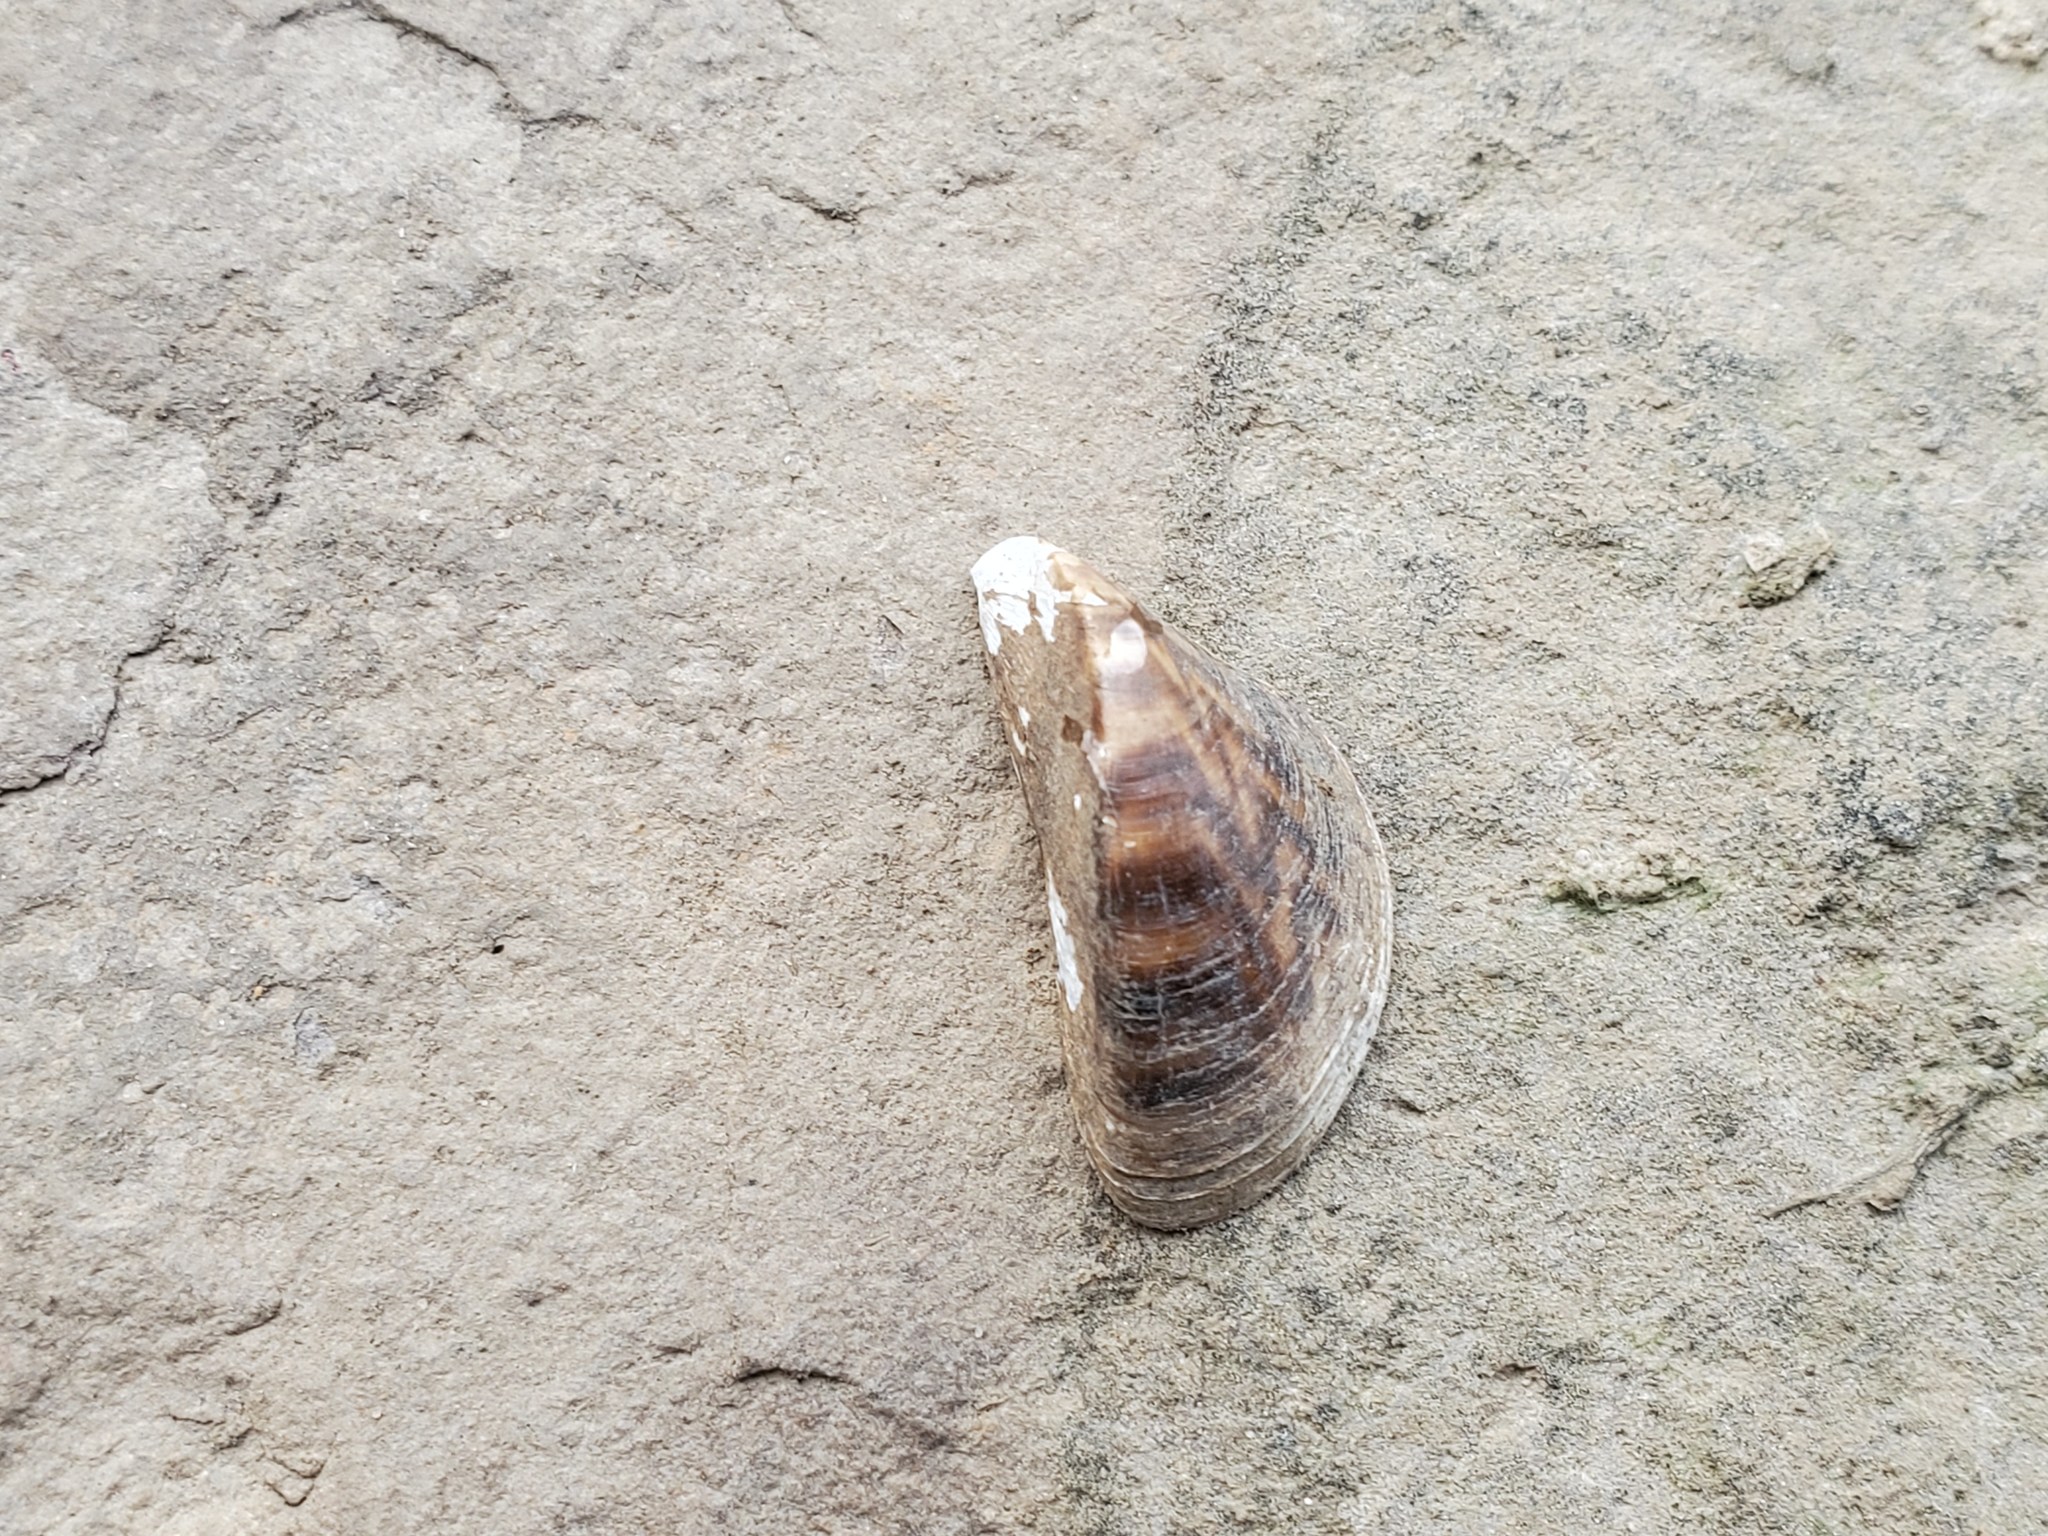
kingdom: Animalia
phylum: Mollusca
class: Bivalvia
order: Myida
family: Dreissenidae
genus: Dreissena
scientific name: Dreissena polymorpha
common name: Zebra mussel
